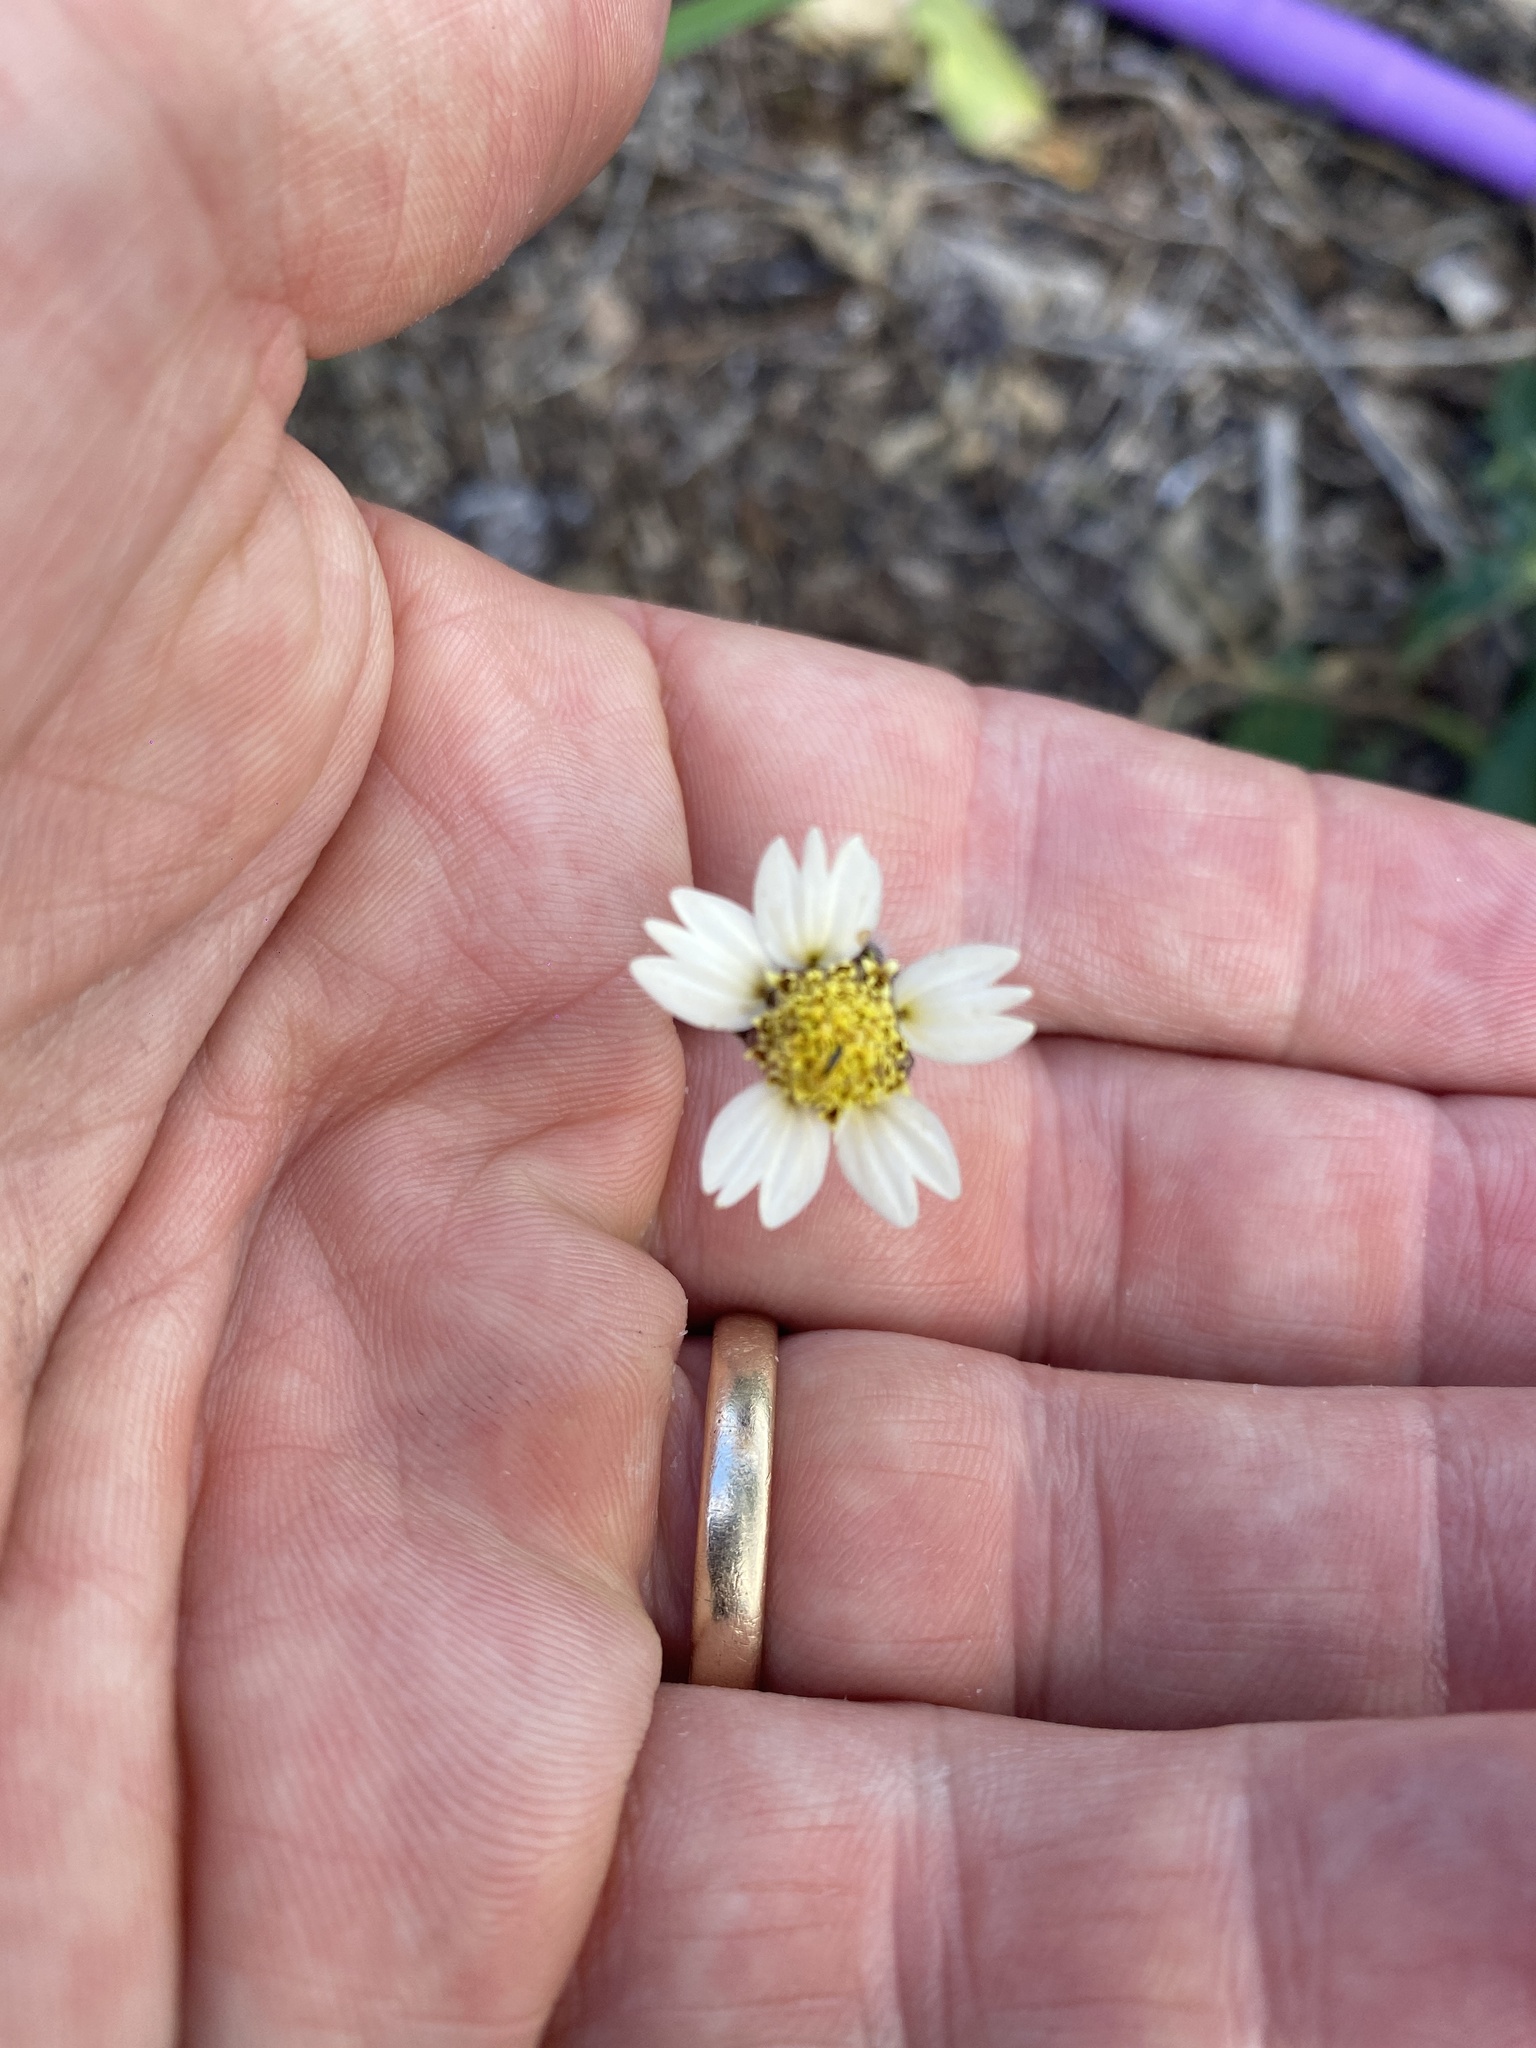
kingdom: Plantae
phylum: Tracheophyta
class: Magnoliopsida
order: Asterales
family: Asteraceae
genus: Tridax
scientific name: Tridax procumbens
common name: Coatbuttons
